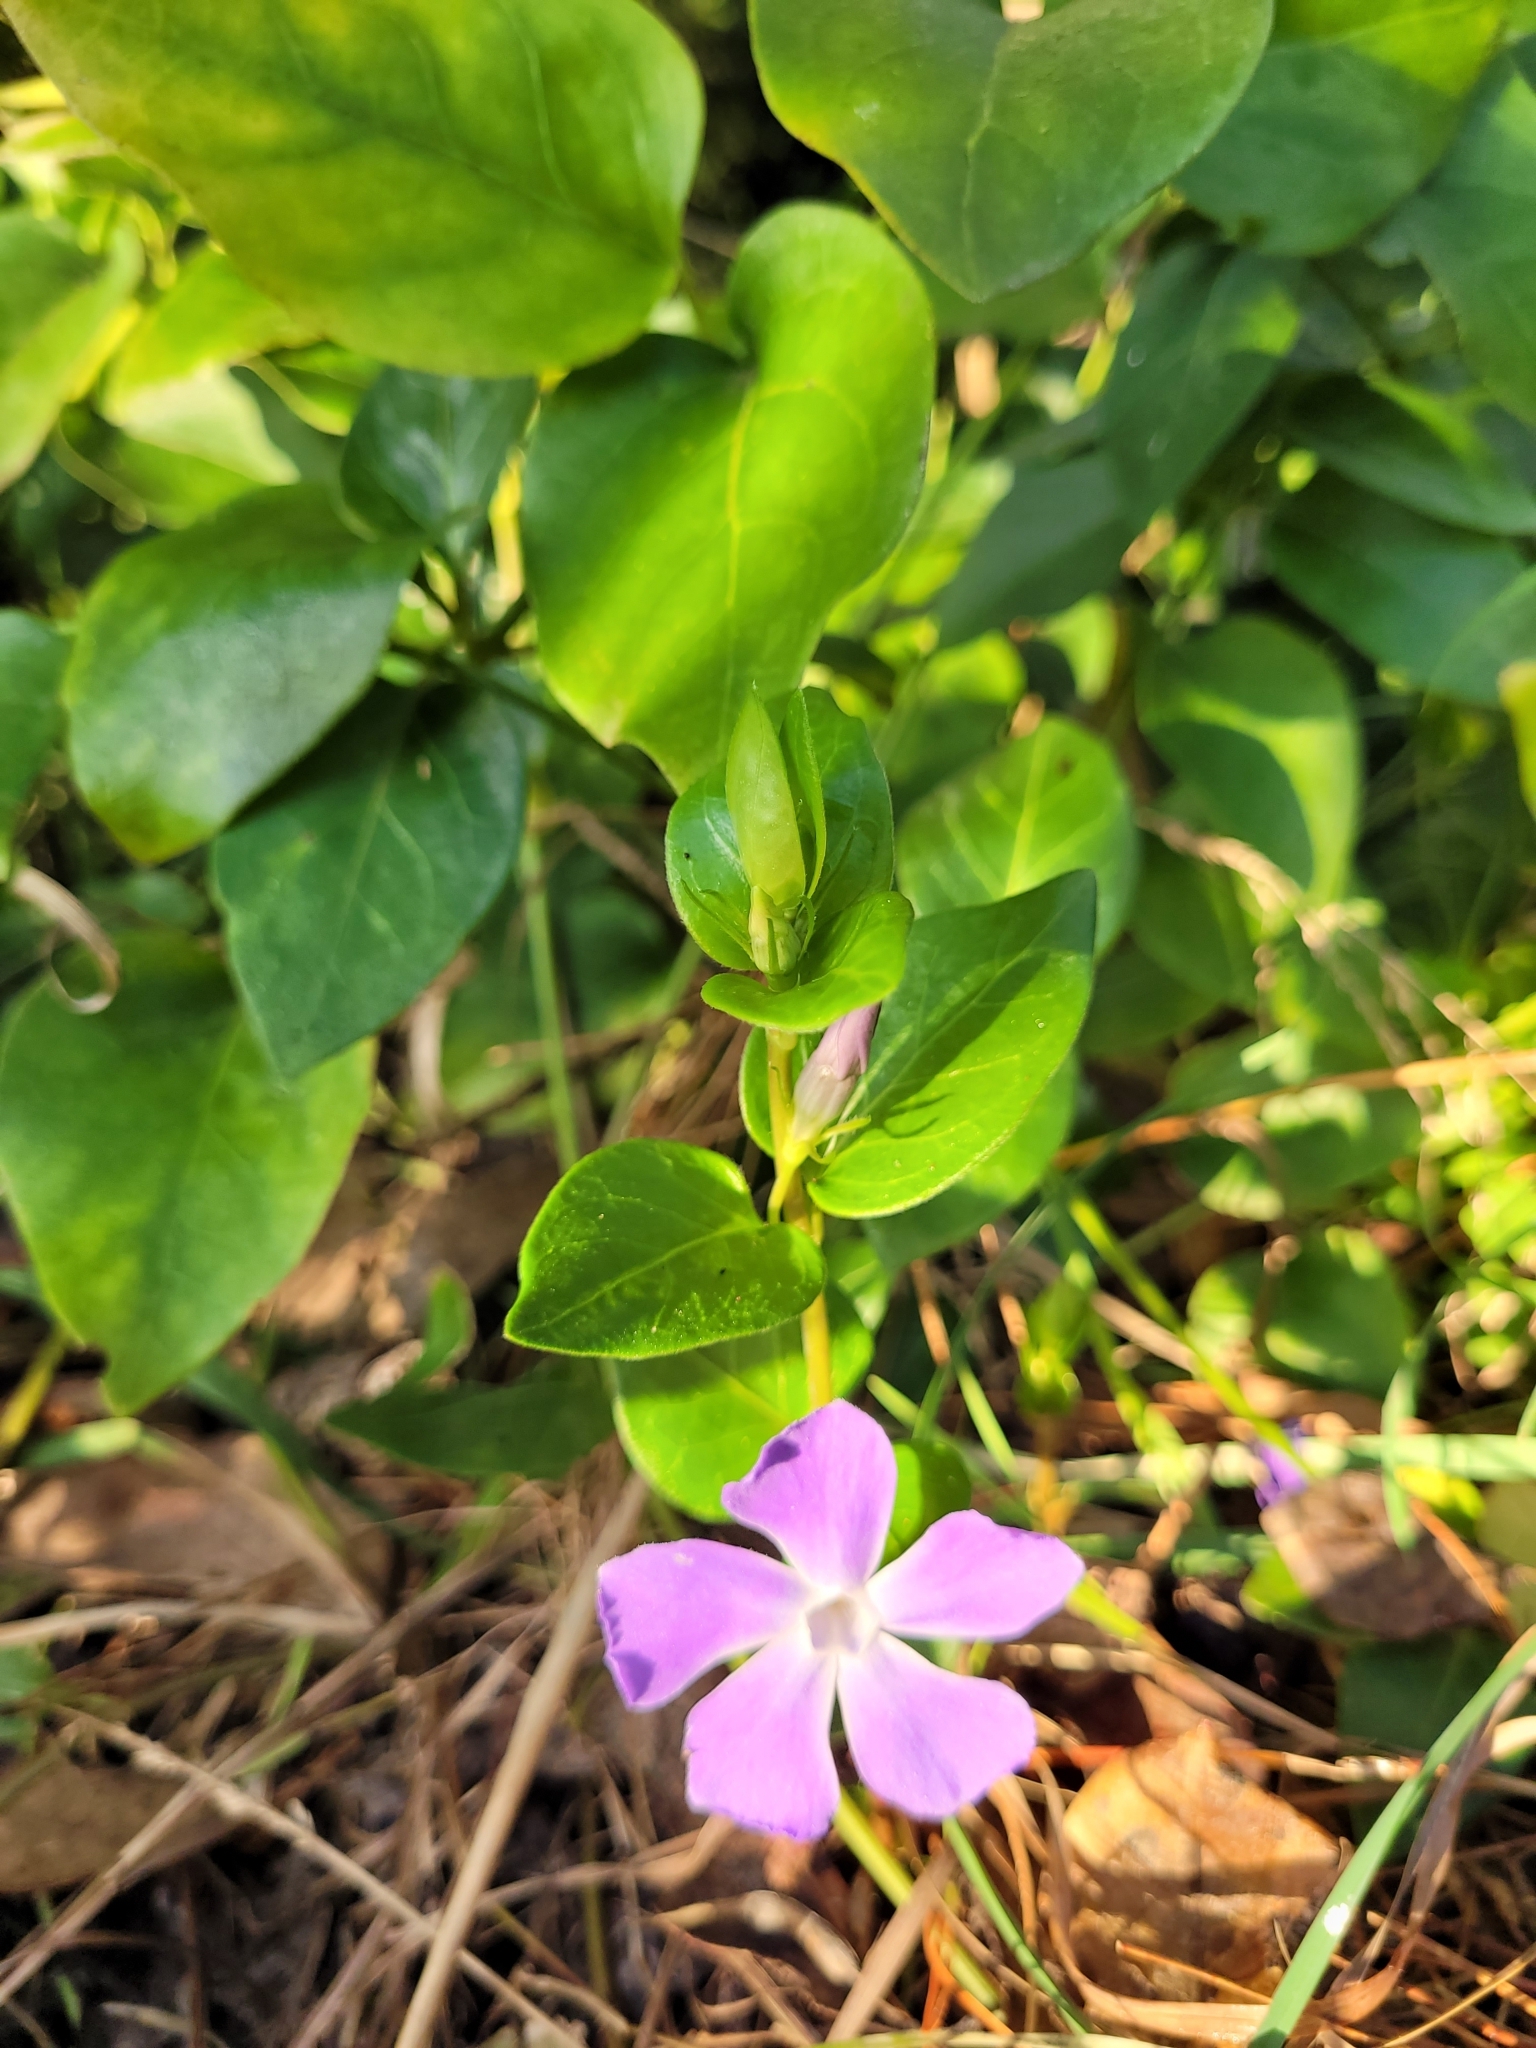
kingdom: Plantae
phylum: Tracheophyta
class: Magnoliopsida
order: Gentianales
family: Apocynaceae
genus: Vinca
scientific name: Vinca major
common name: Greater periwinkle
